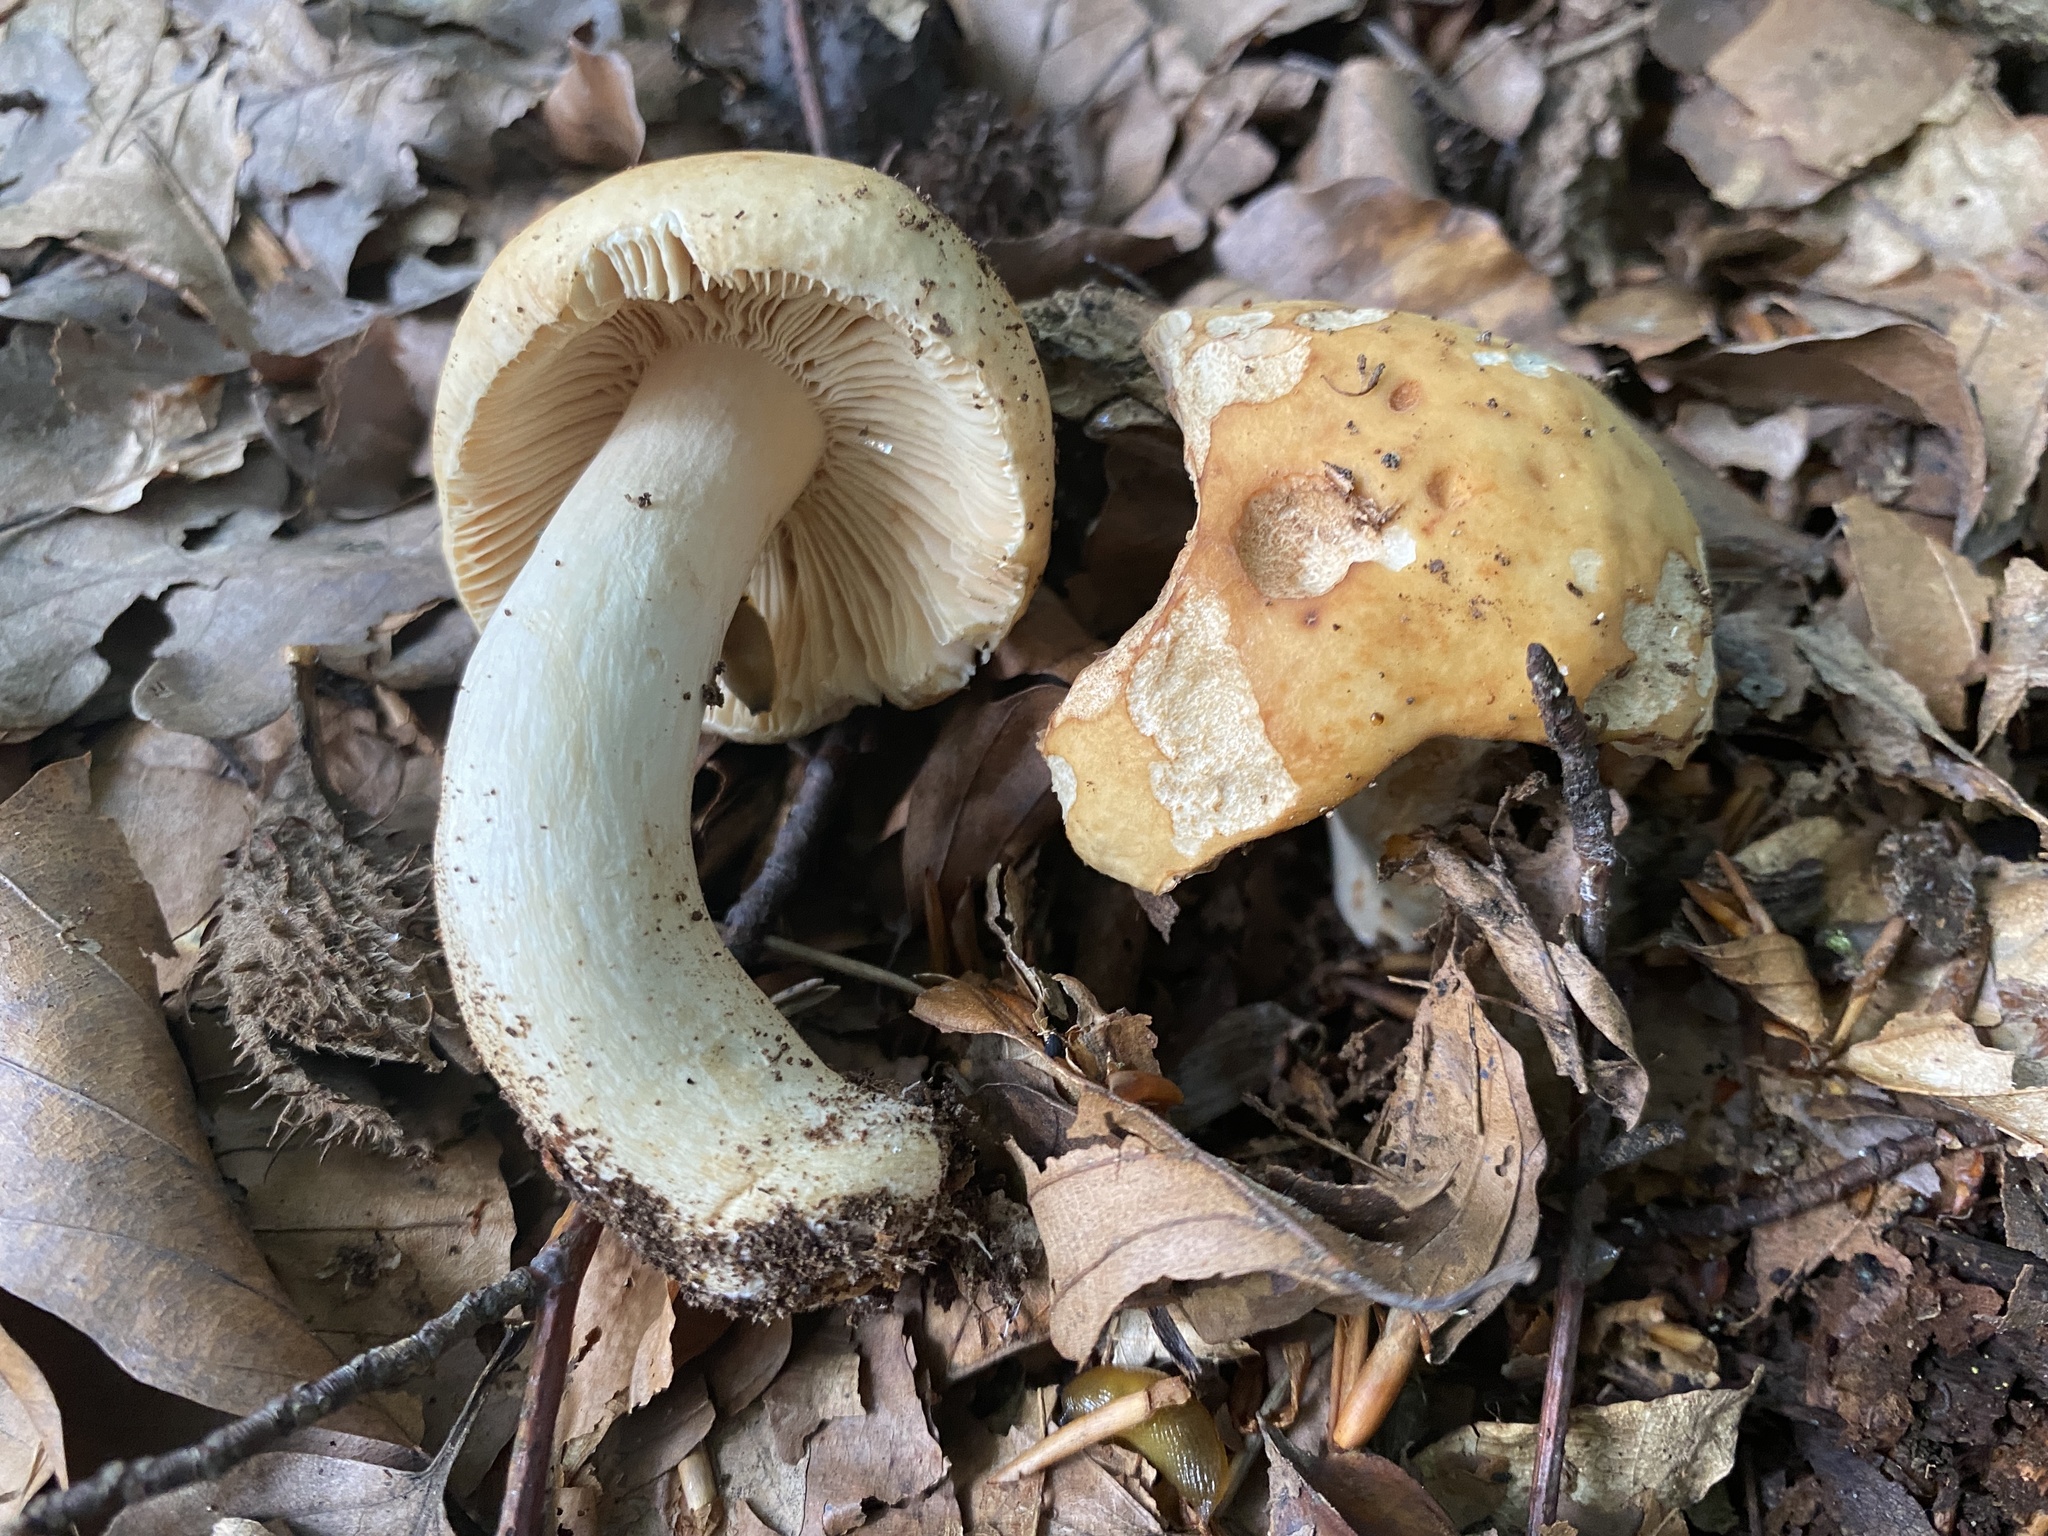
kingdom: Fungi
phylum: Basidiomycota
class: Agaricomycetes
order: Russulales
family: Russulaceae
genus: Russula
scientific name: Russula fellea
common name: Geranium brittlegill
